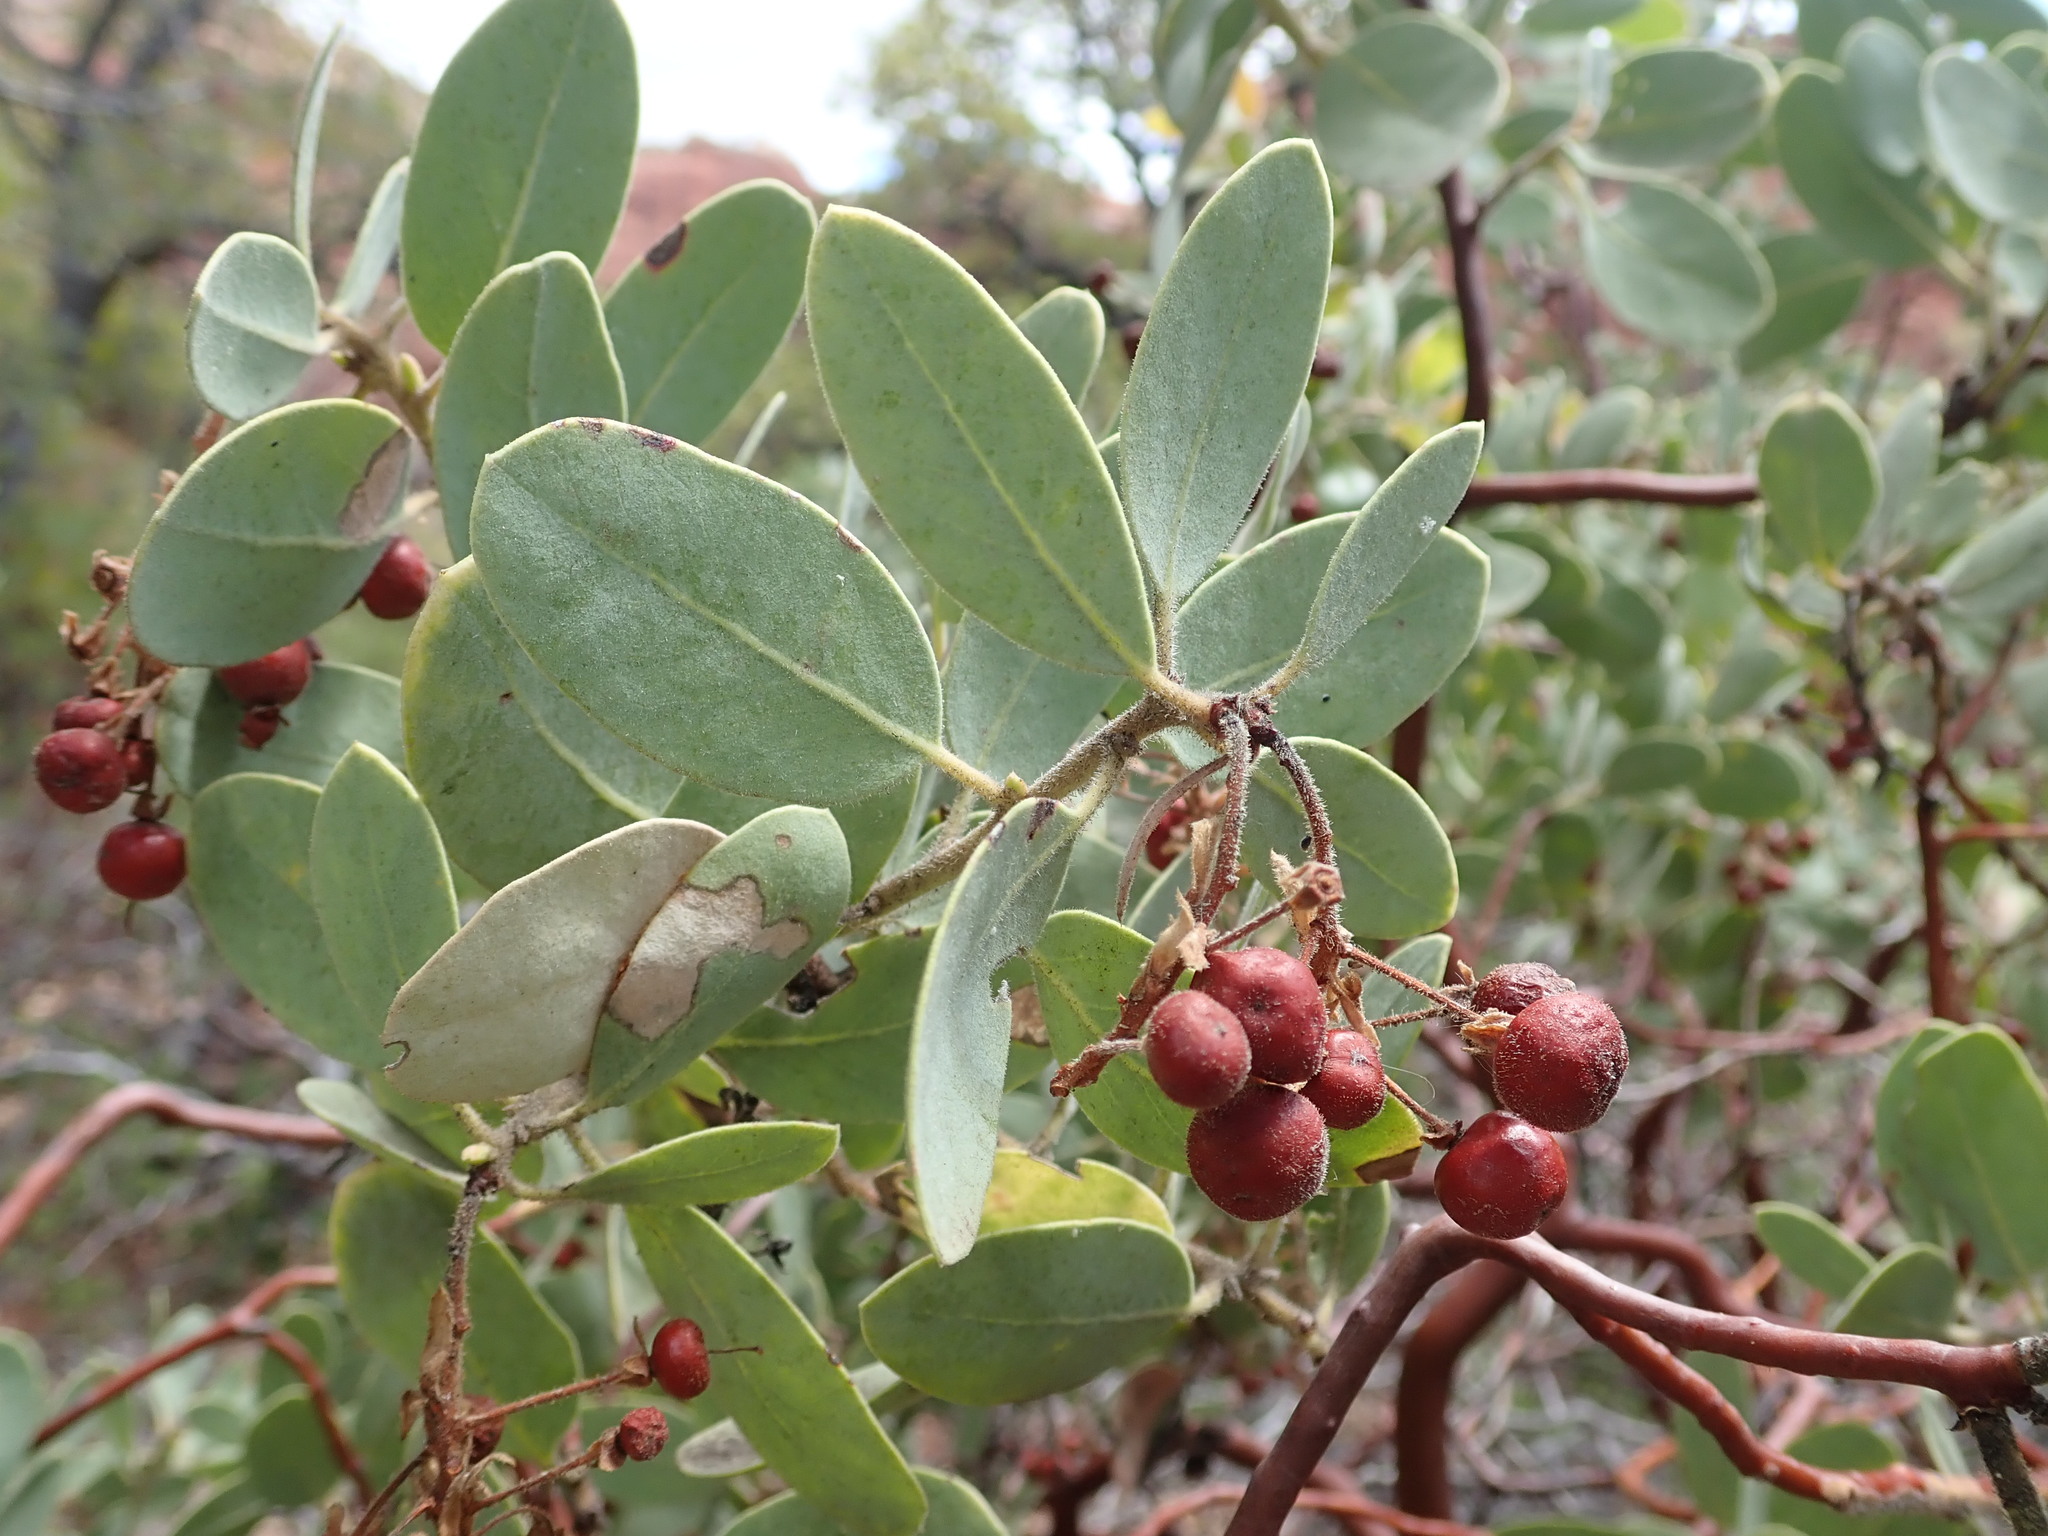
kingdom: Plantae
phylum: Tracheophyta
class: Magnoliopsida
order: Ericales
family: Ericaceae
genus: Arctostaphylos
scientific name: Arctostaphylos pringlei
